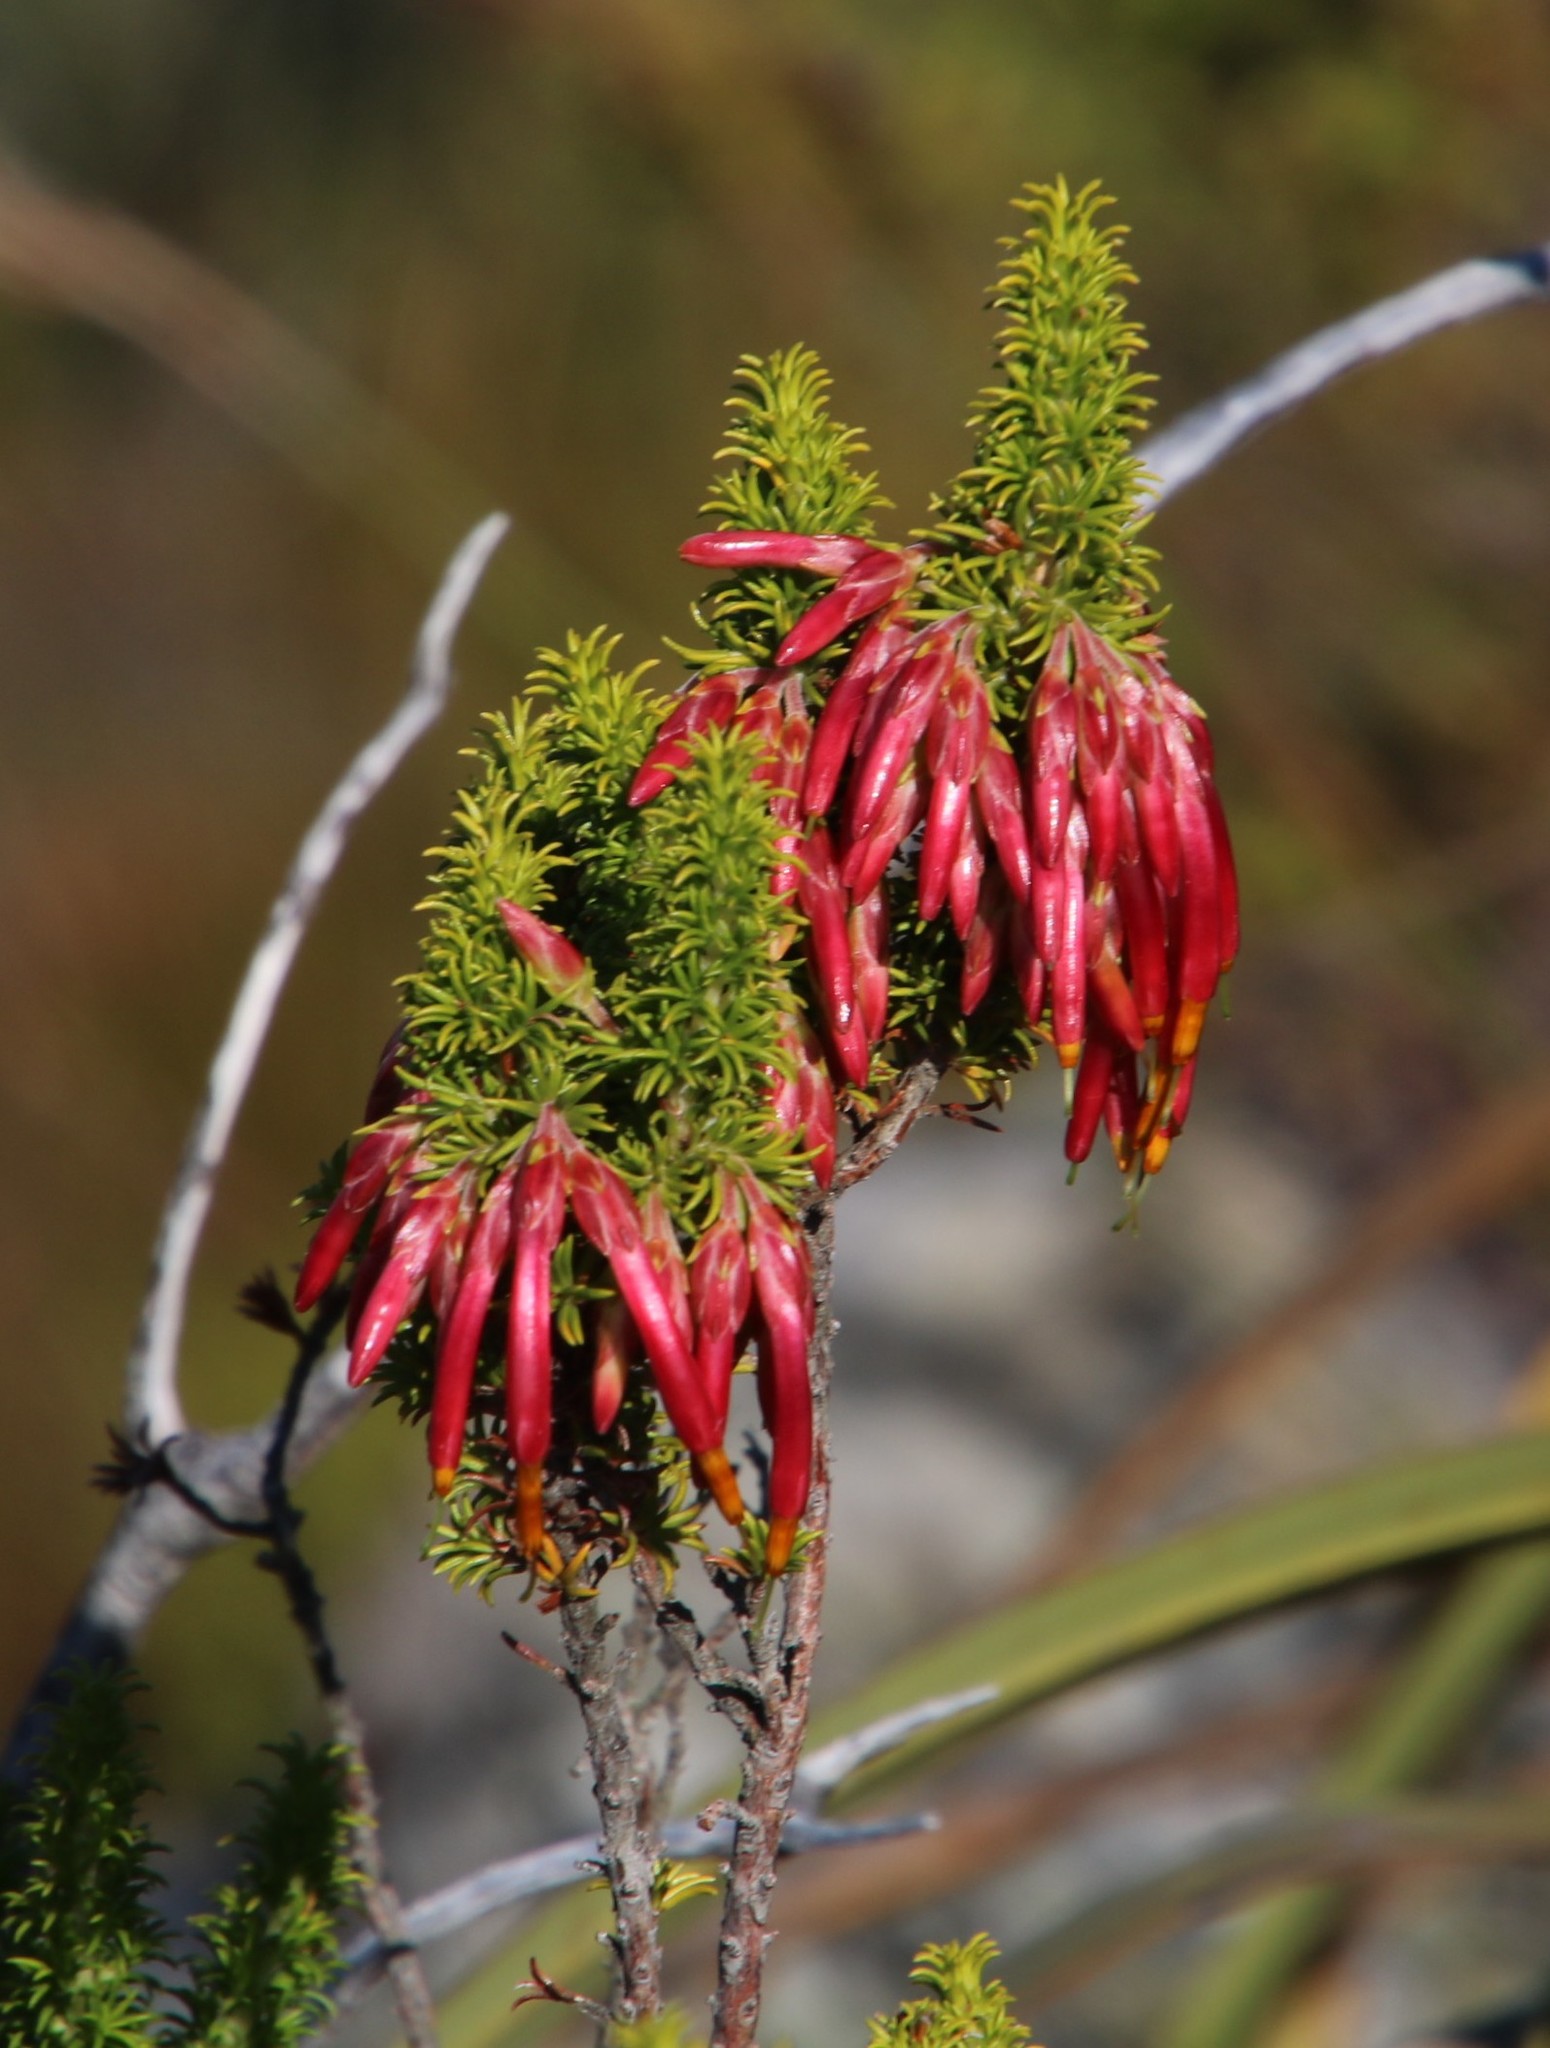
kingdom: Plantae
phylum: Tracheophyta
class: Magnoliopsida
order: Ericales
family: Ericaceae
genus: Erica
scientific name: Erica coccinea
